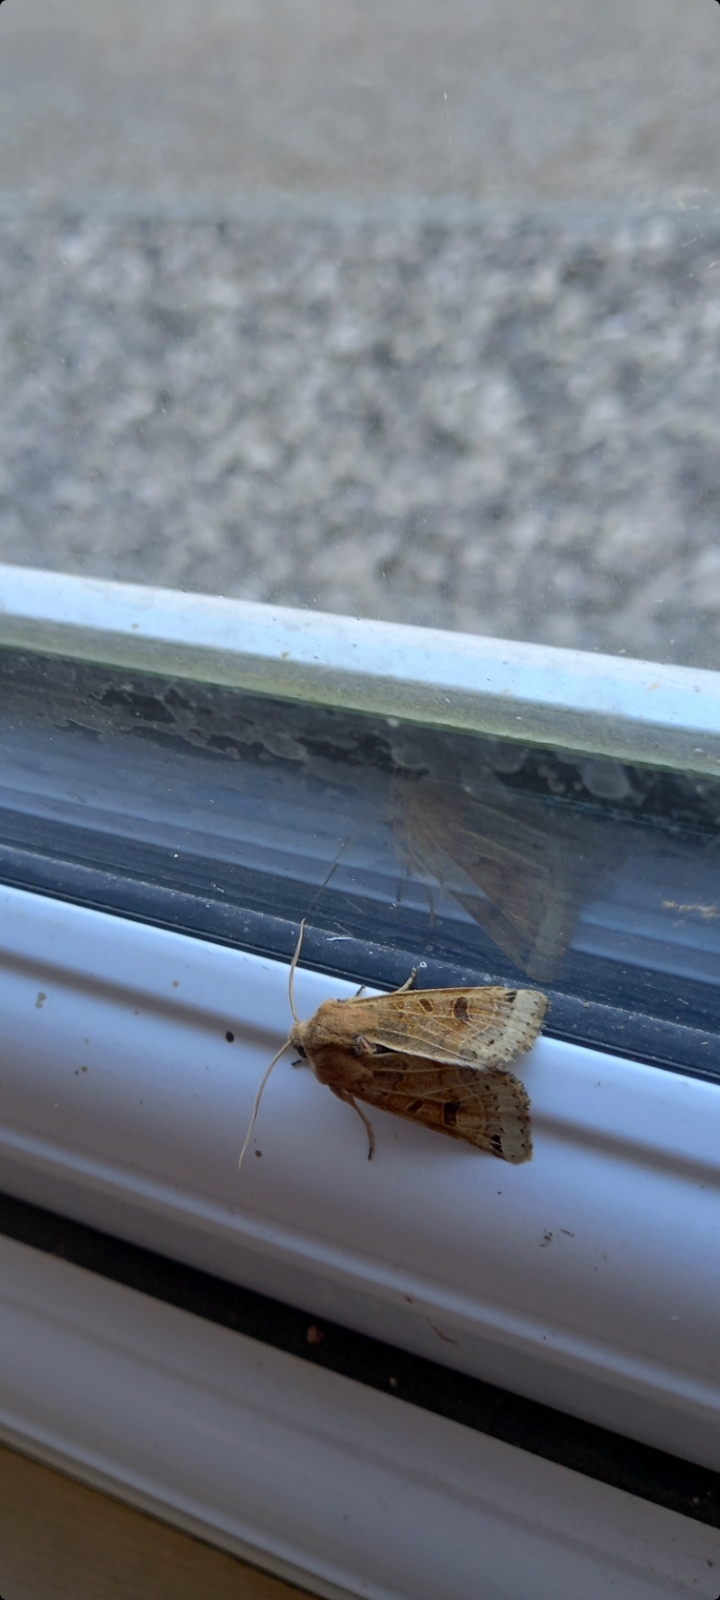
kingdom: Animalia
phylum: Arthropoda
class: Insecta
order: Lepidoptera
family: Noctuidae
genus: Agrochola
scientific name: Agrochola lunosa
